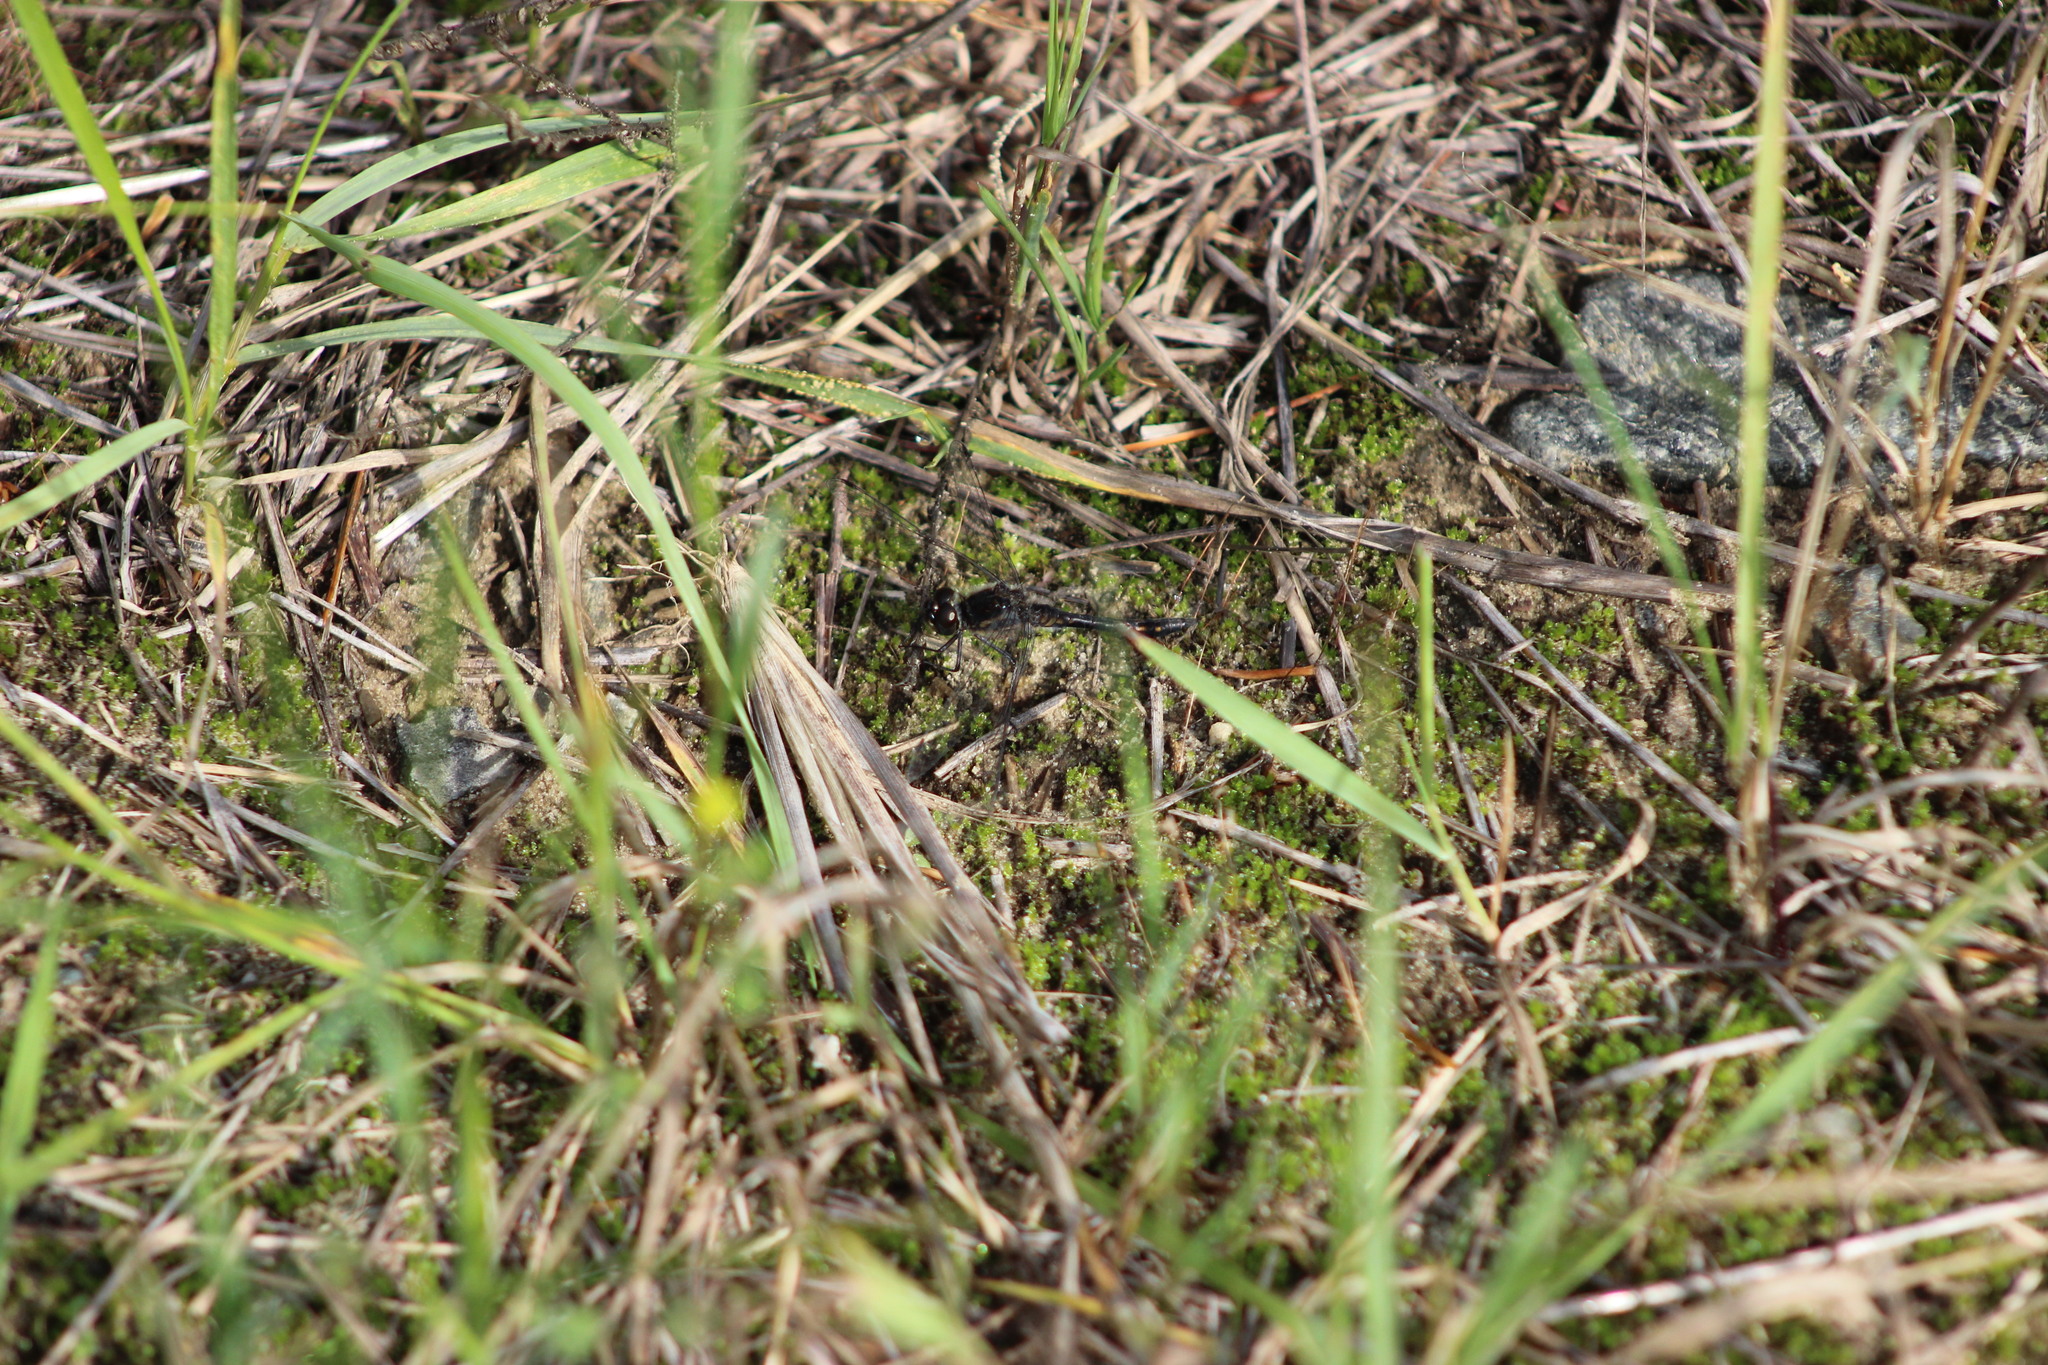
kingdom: Animalia
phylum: Arthropoda
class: Insecta
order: Odonata
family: Libellulidae
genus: Sympetrum
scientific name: Sympetrum danae
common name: Black darter
